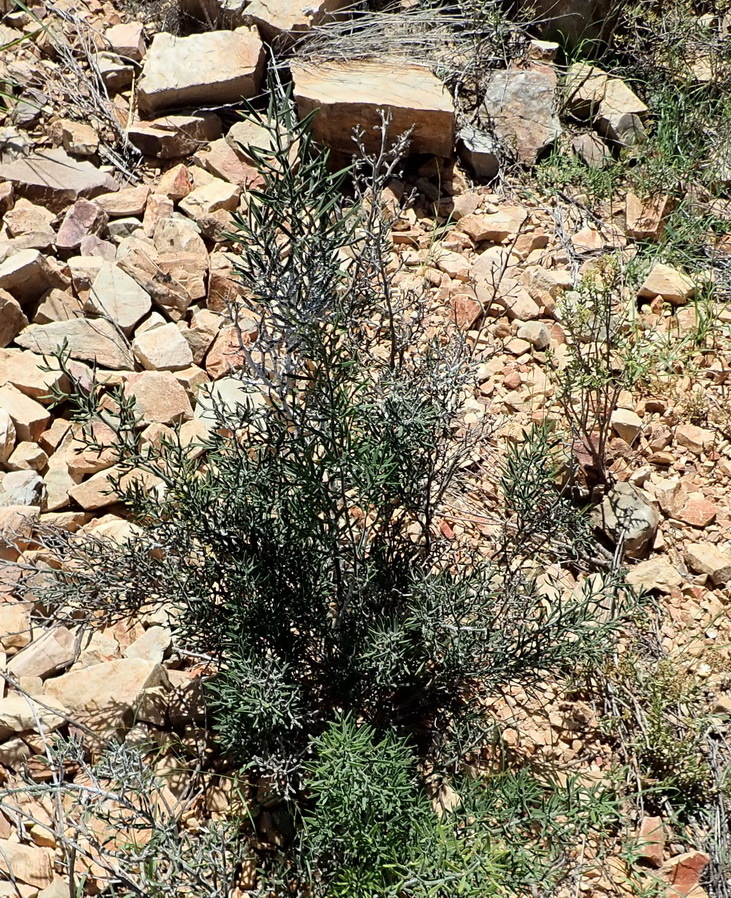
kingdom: Plantae
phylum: Tracheophyta
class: Liliopsida
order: Asparagales
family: Asparagaceae
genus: Asparagus
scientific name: Asparagus striatus
